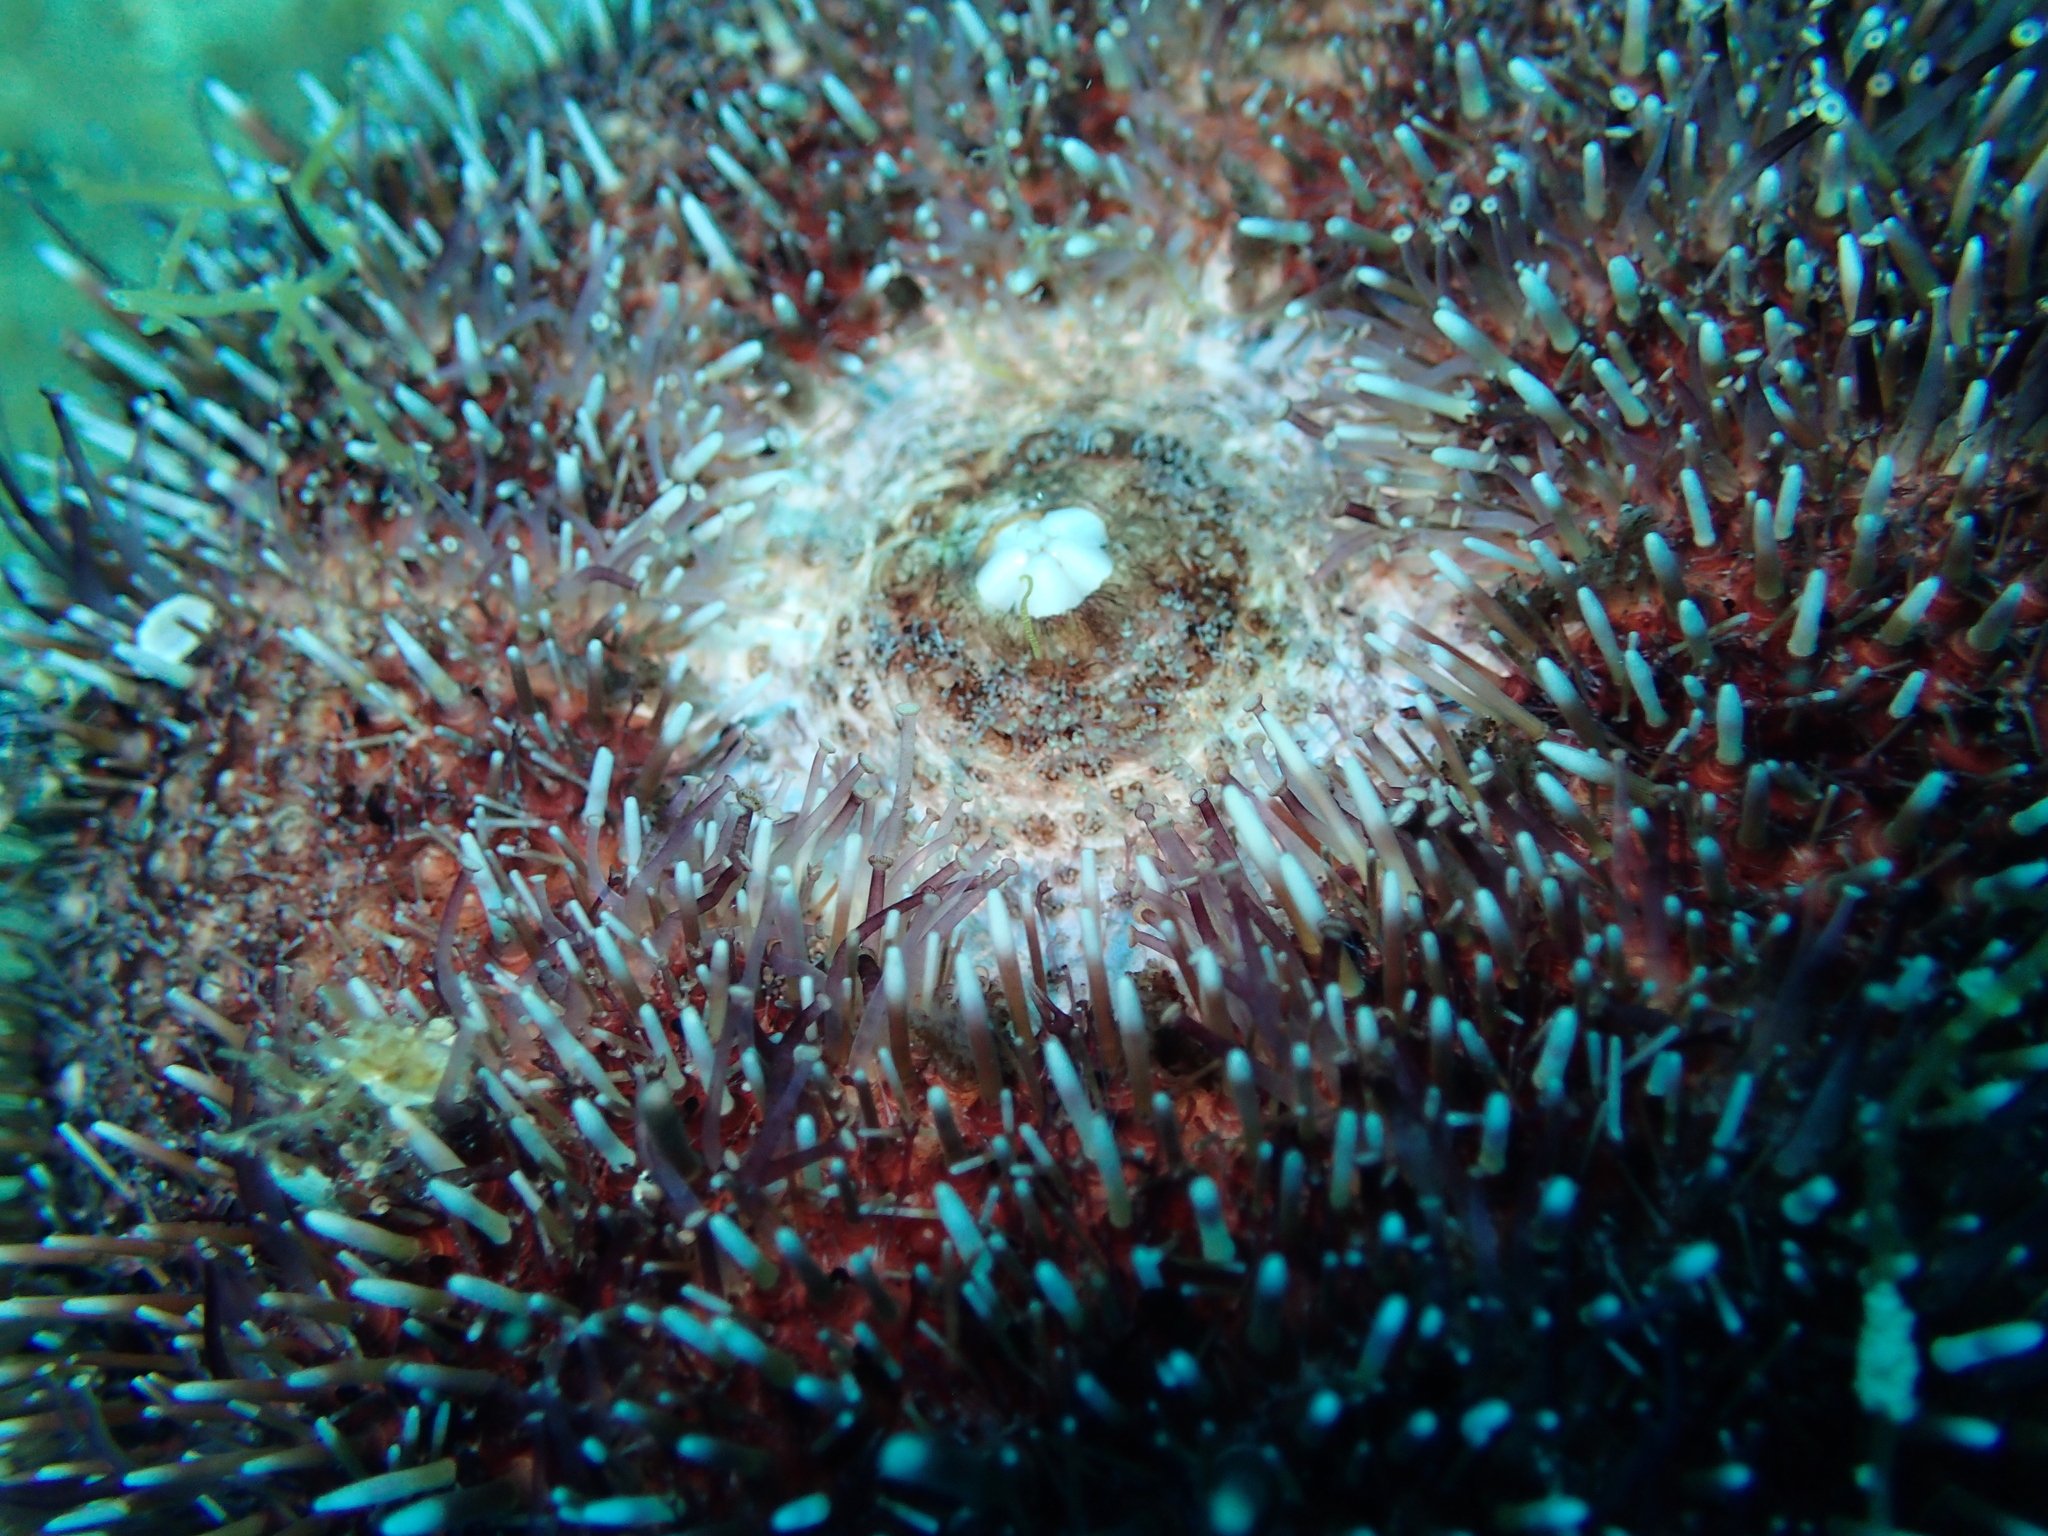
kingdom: Animalia
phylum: Echinodermata
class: Echinoidea
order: Camarodonta
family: Toxopneustidae
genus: Sphaerechinus
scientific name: Sphaerechinus granularis
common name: Violet sea urchin
